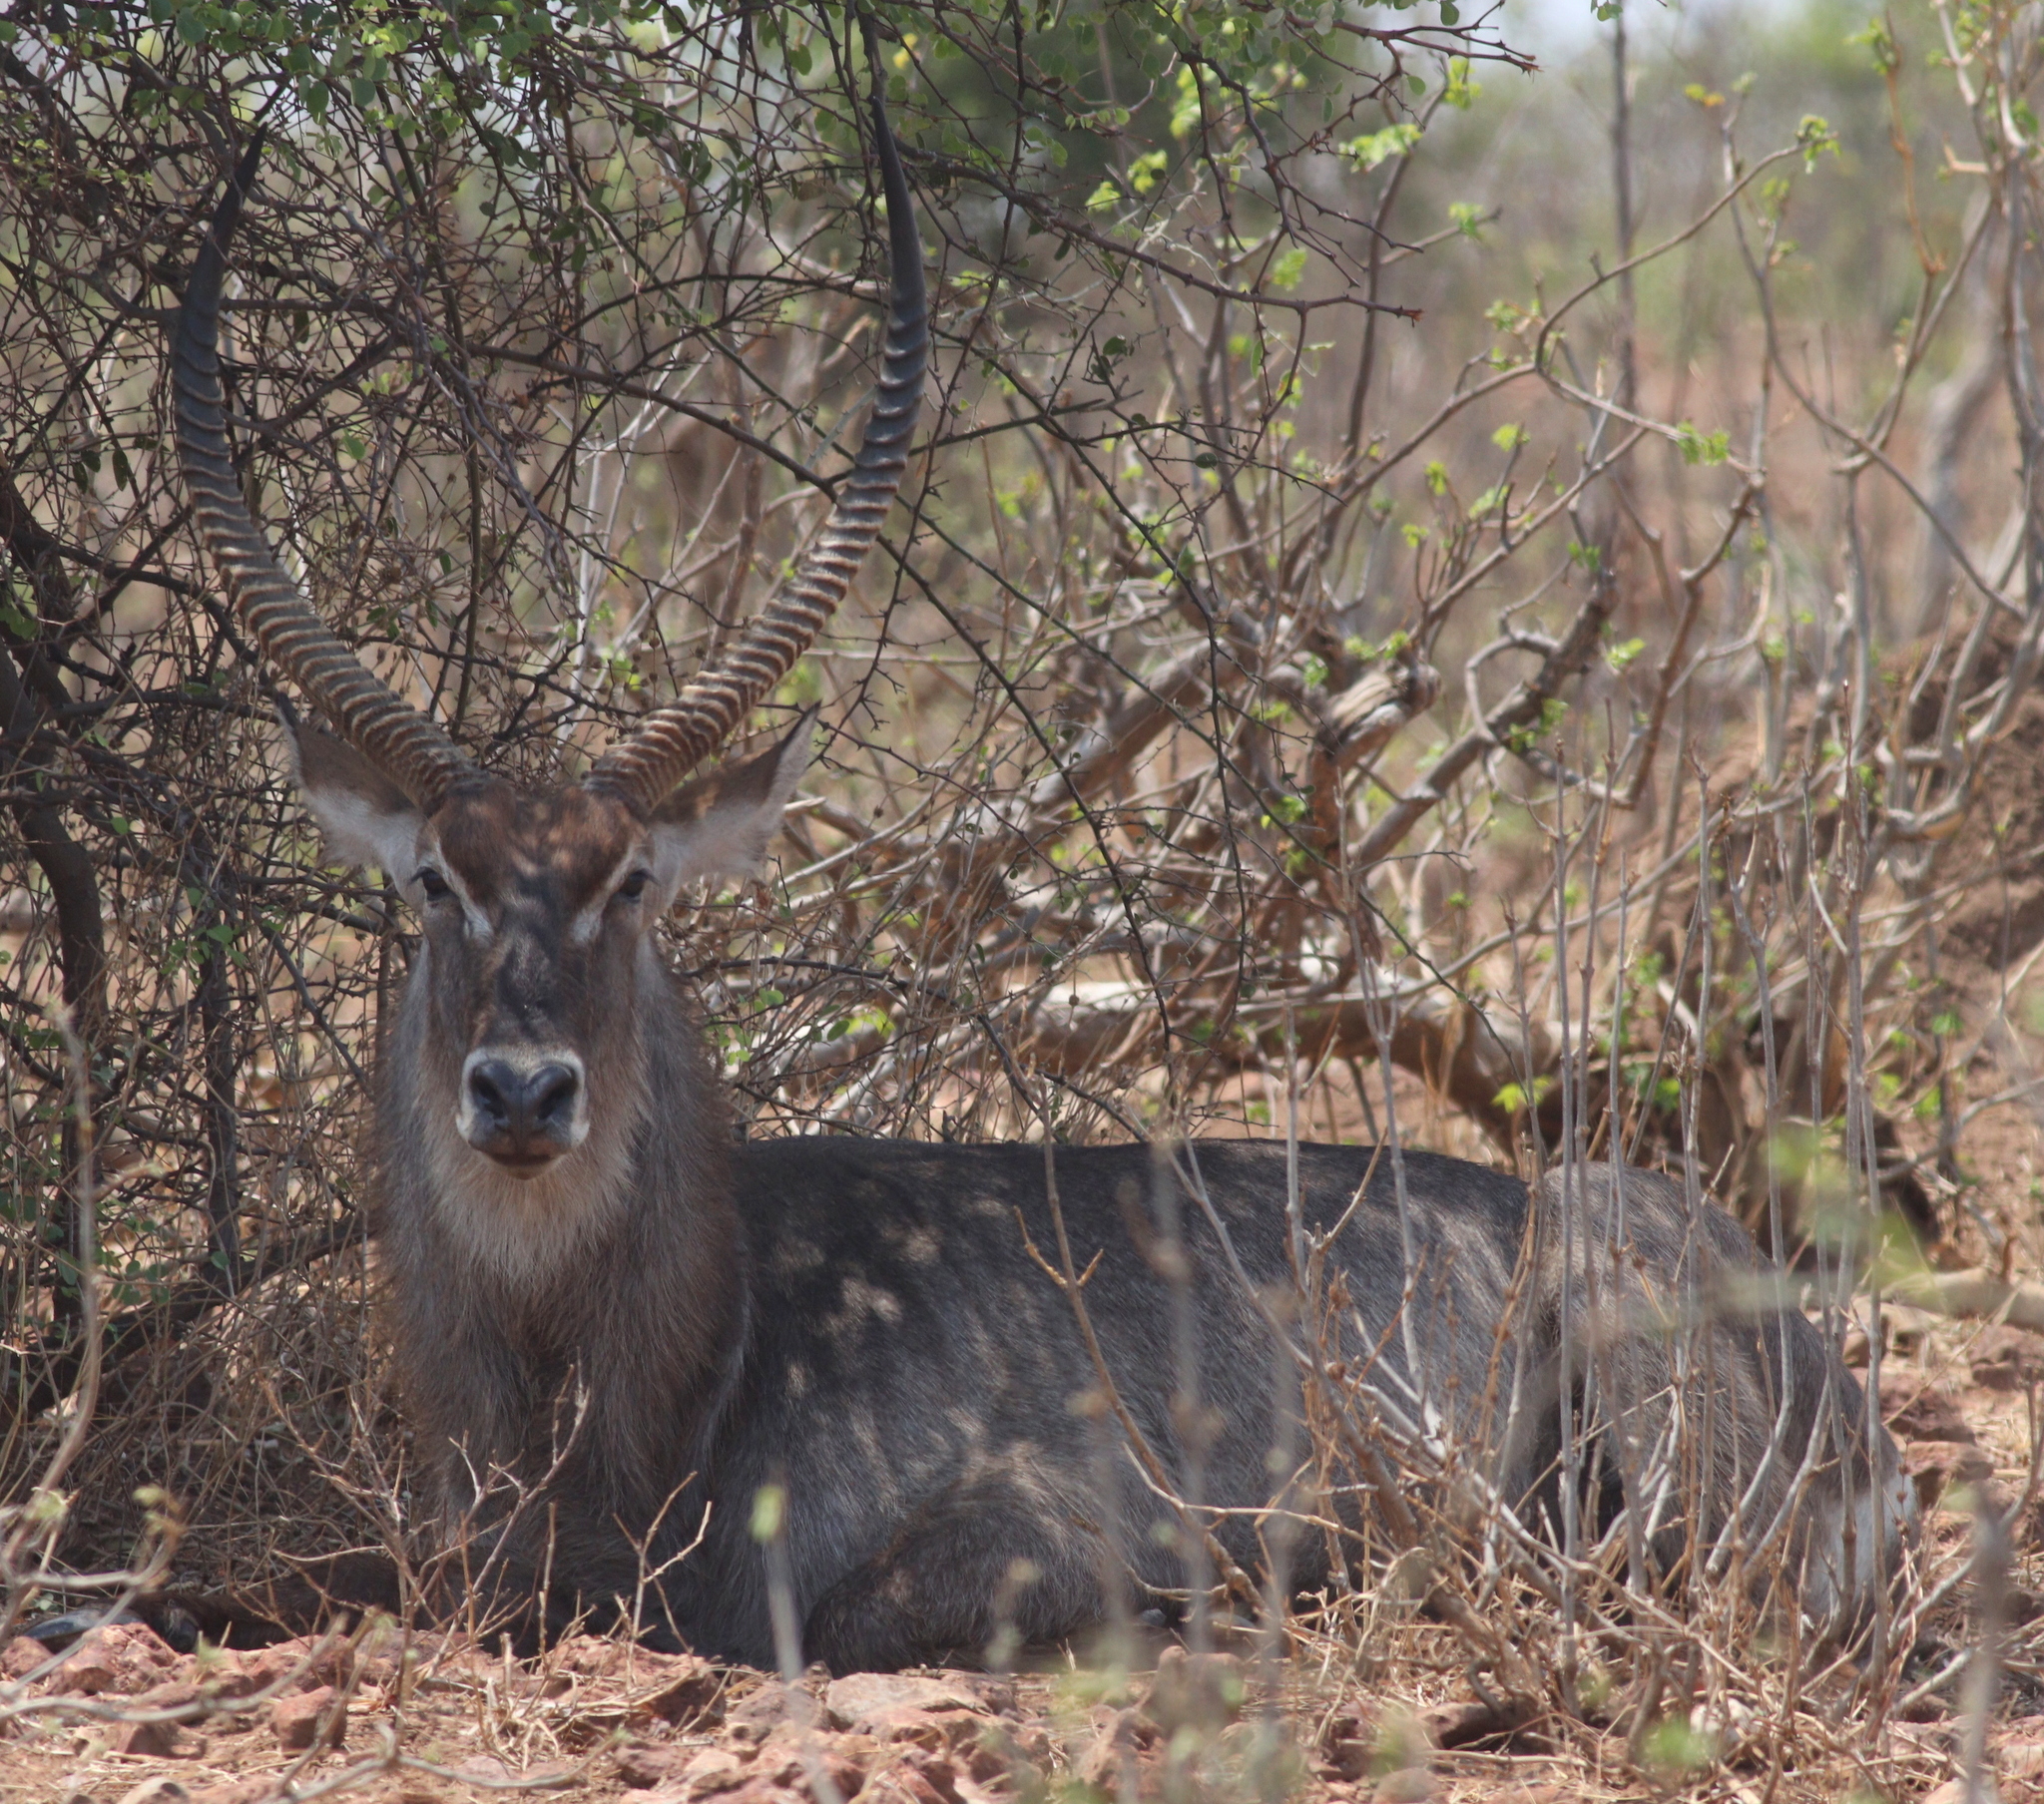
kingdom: Animalia
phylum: Chordata
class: Mammalia
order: Artiodactyla
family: Bovidae
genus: Kobus
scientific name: Kobus ellipsiprymnus
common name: Waterbuck
